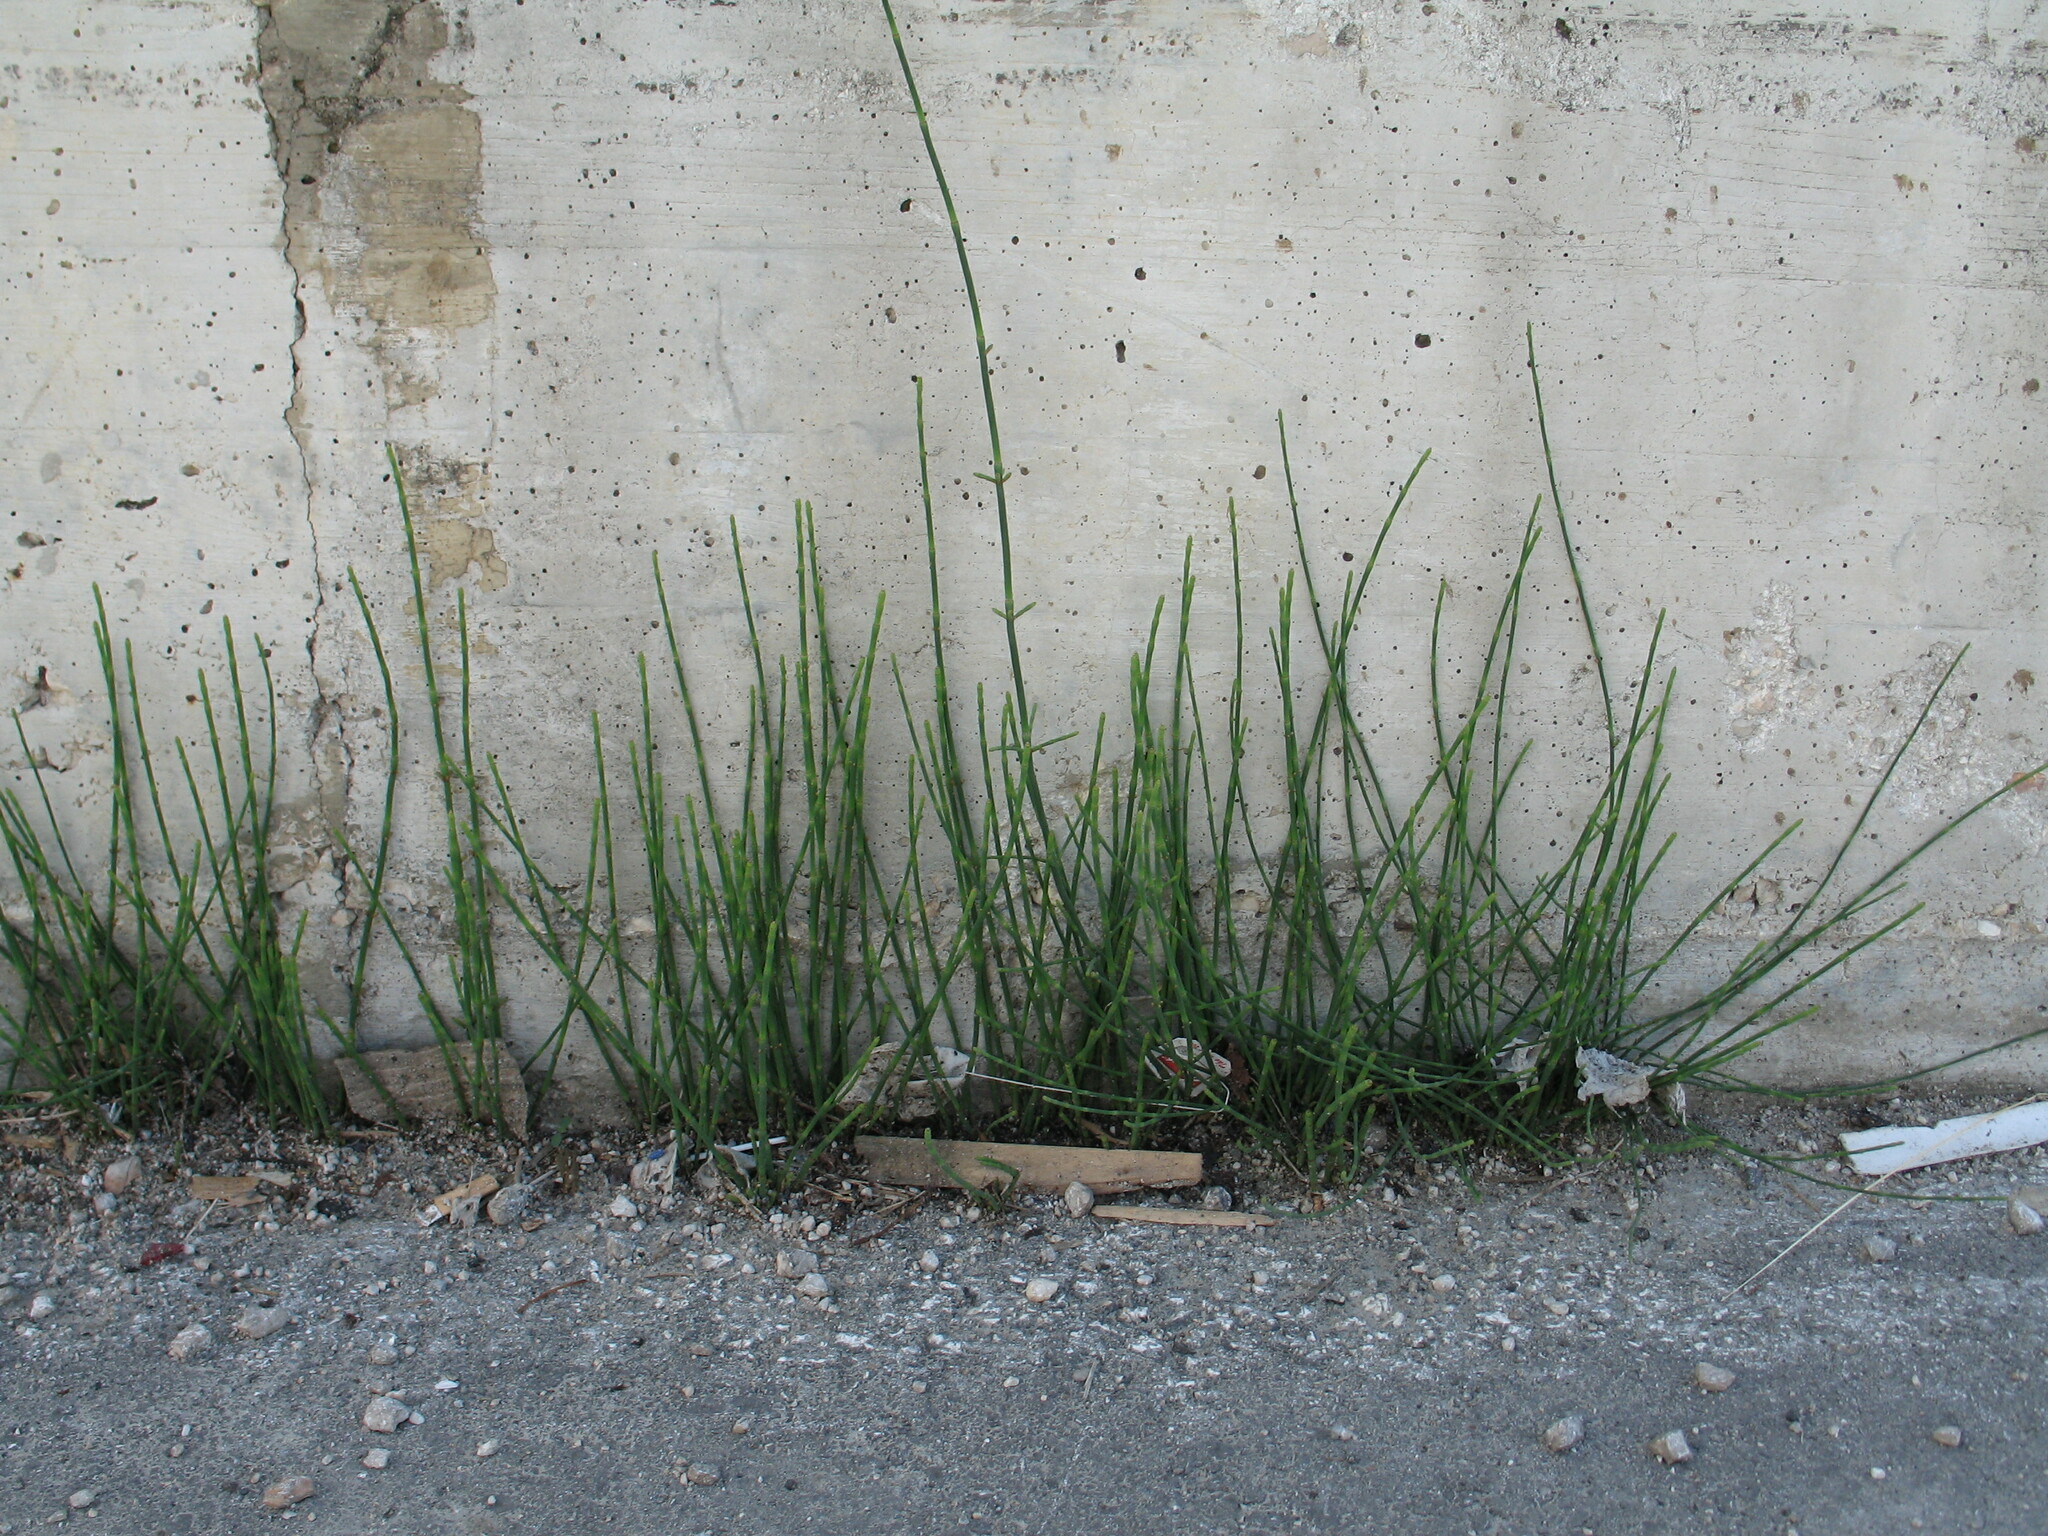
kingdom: Plantae
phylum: Tracheophyta
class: Polypodiopsida
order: Equisetales
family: Equisetaceae
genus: Equisetum
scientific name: Equisetum ramosissimum
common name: Branched horsetail
